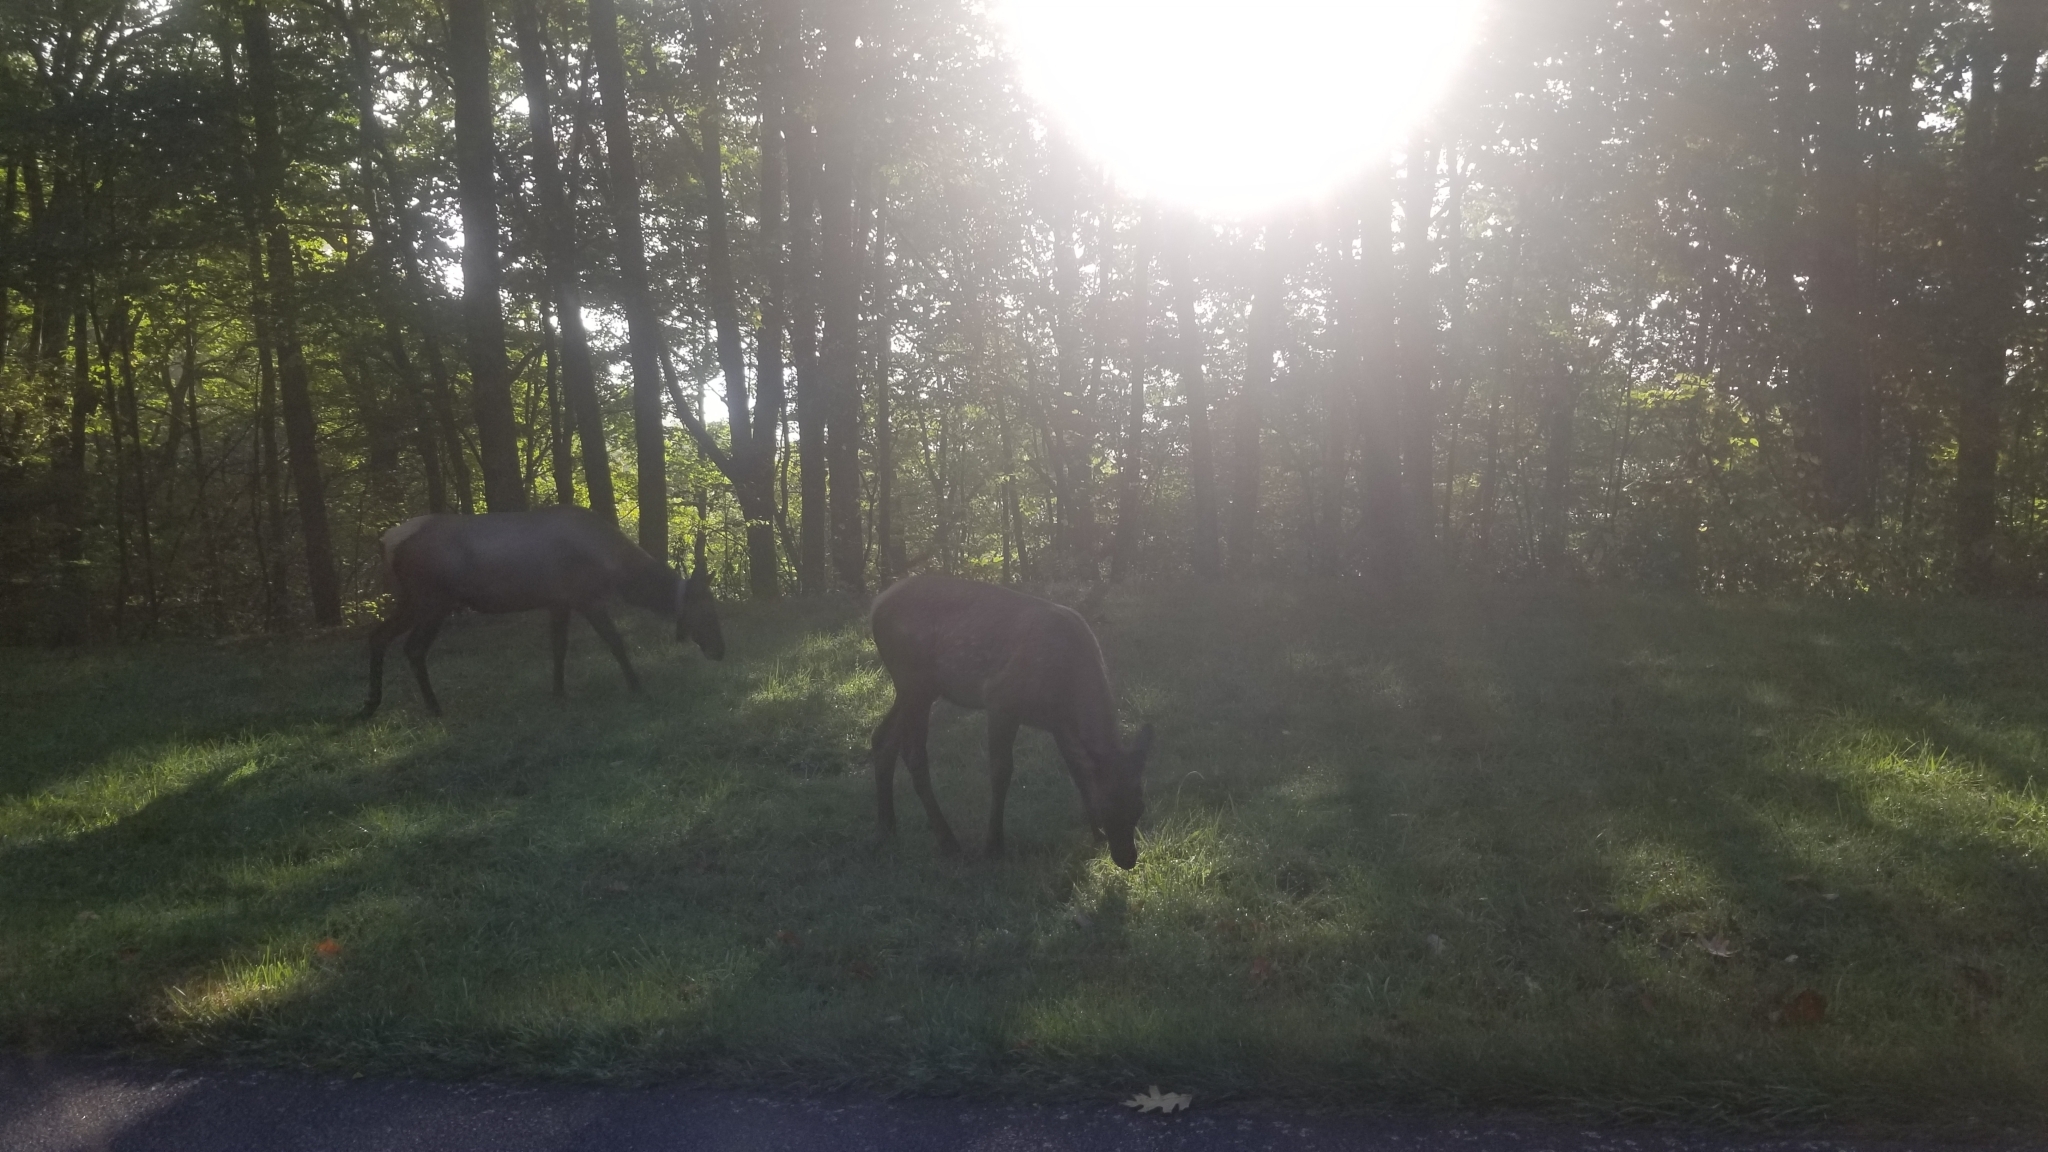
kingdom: Animalia
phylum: Chordata
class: Mammalia
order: Artiodactyla
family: Cervidae
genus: Cervus
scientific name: Cervus elaphus
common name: Red deer
